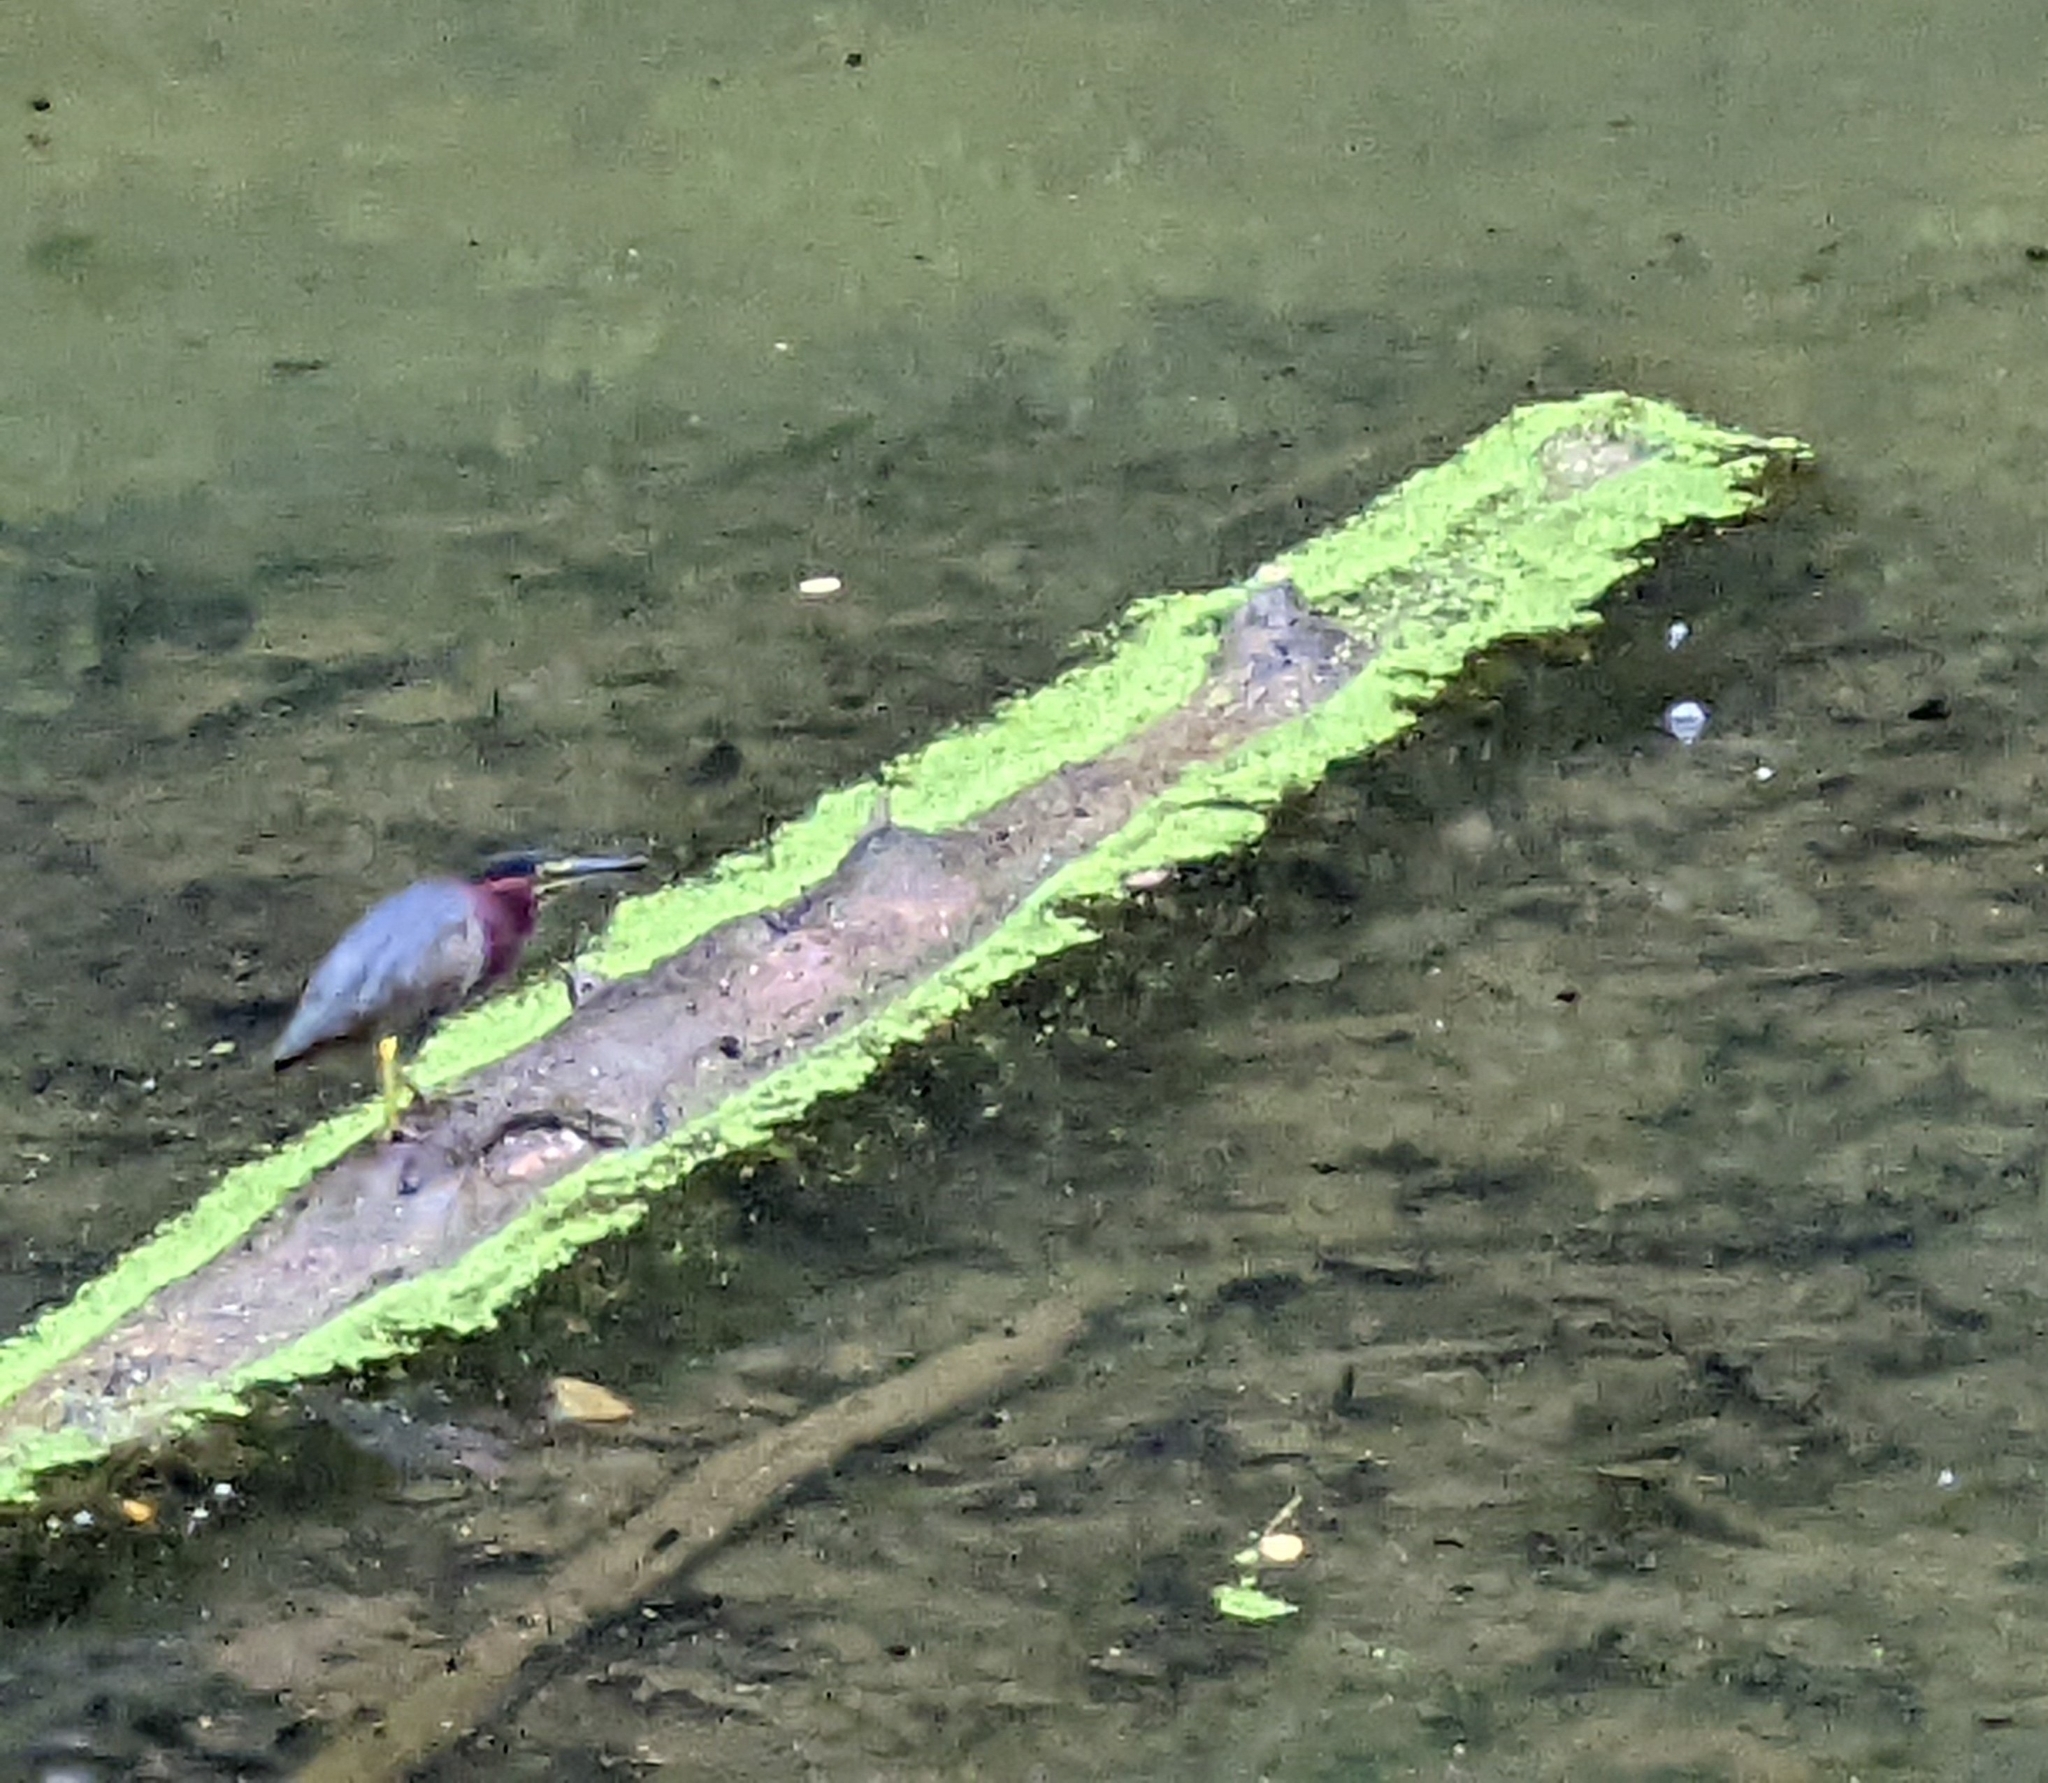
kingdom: Animalia
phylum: Chordata
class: Aves
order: Pelecaniformes
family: Ardeidae
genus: Butorides
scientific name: Butorides virescens
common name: Green heron
